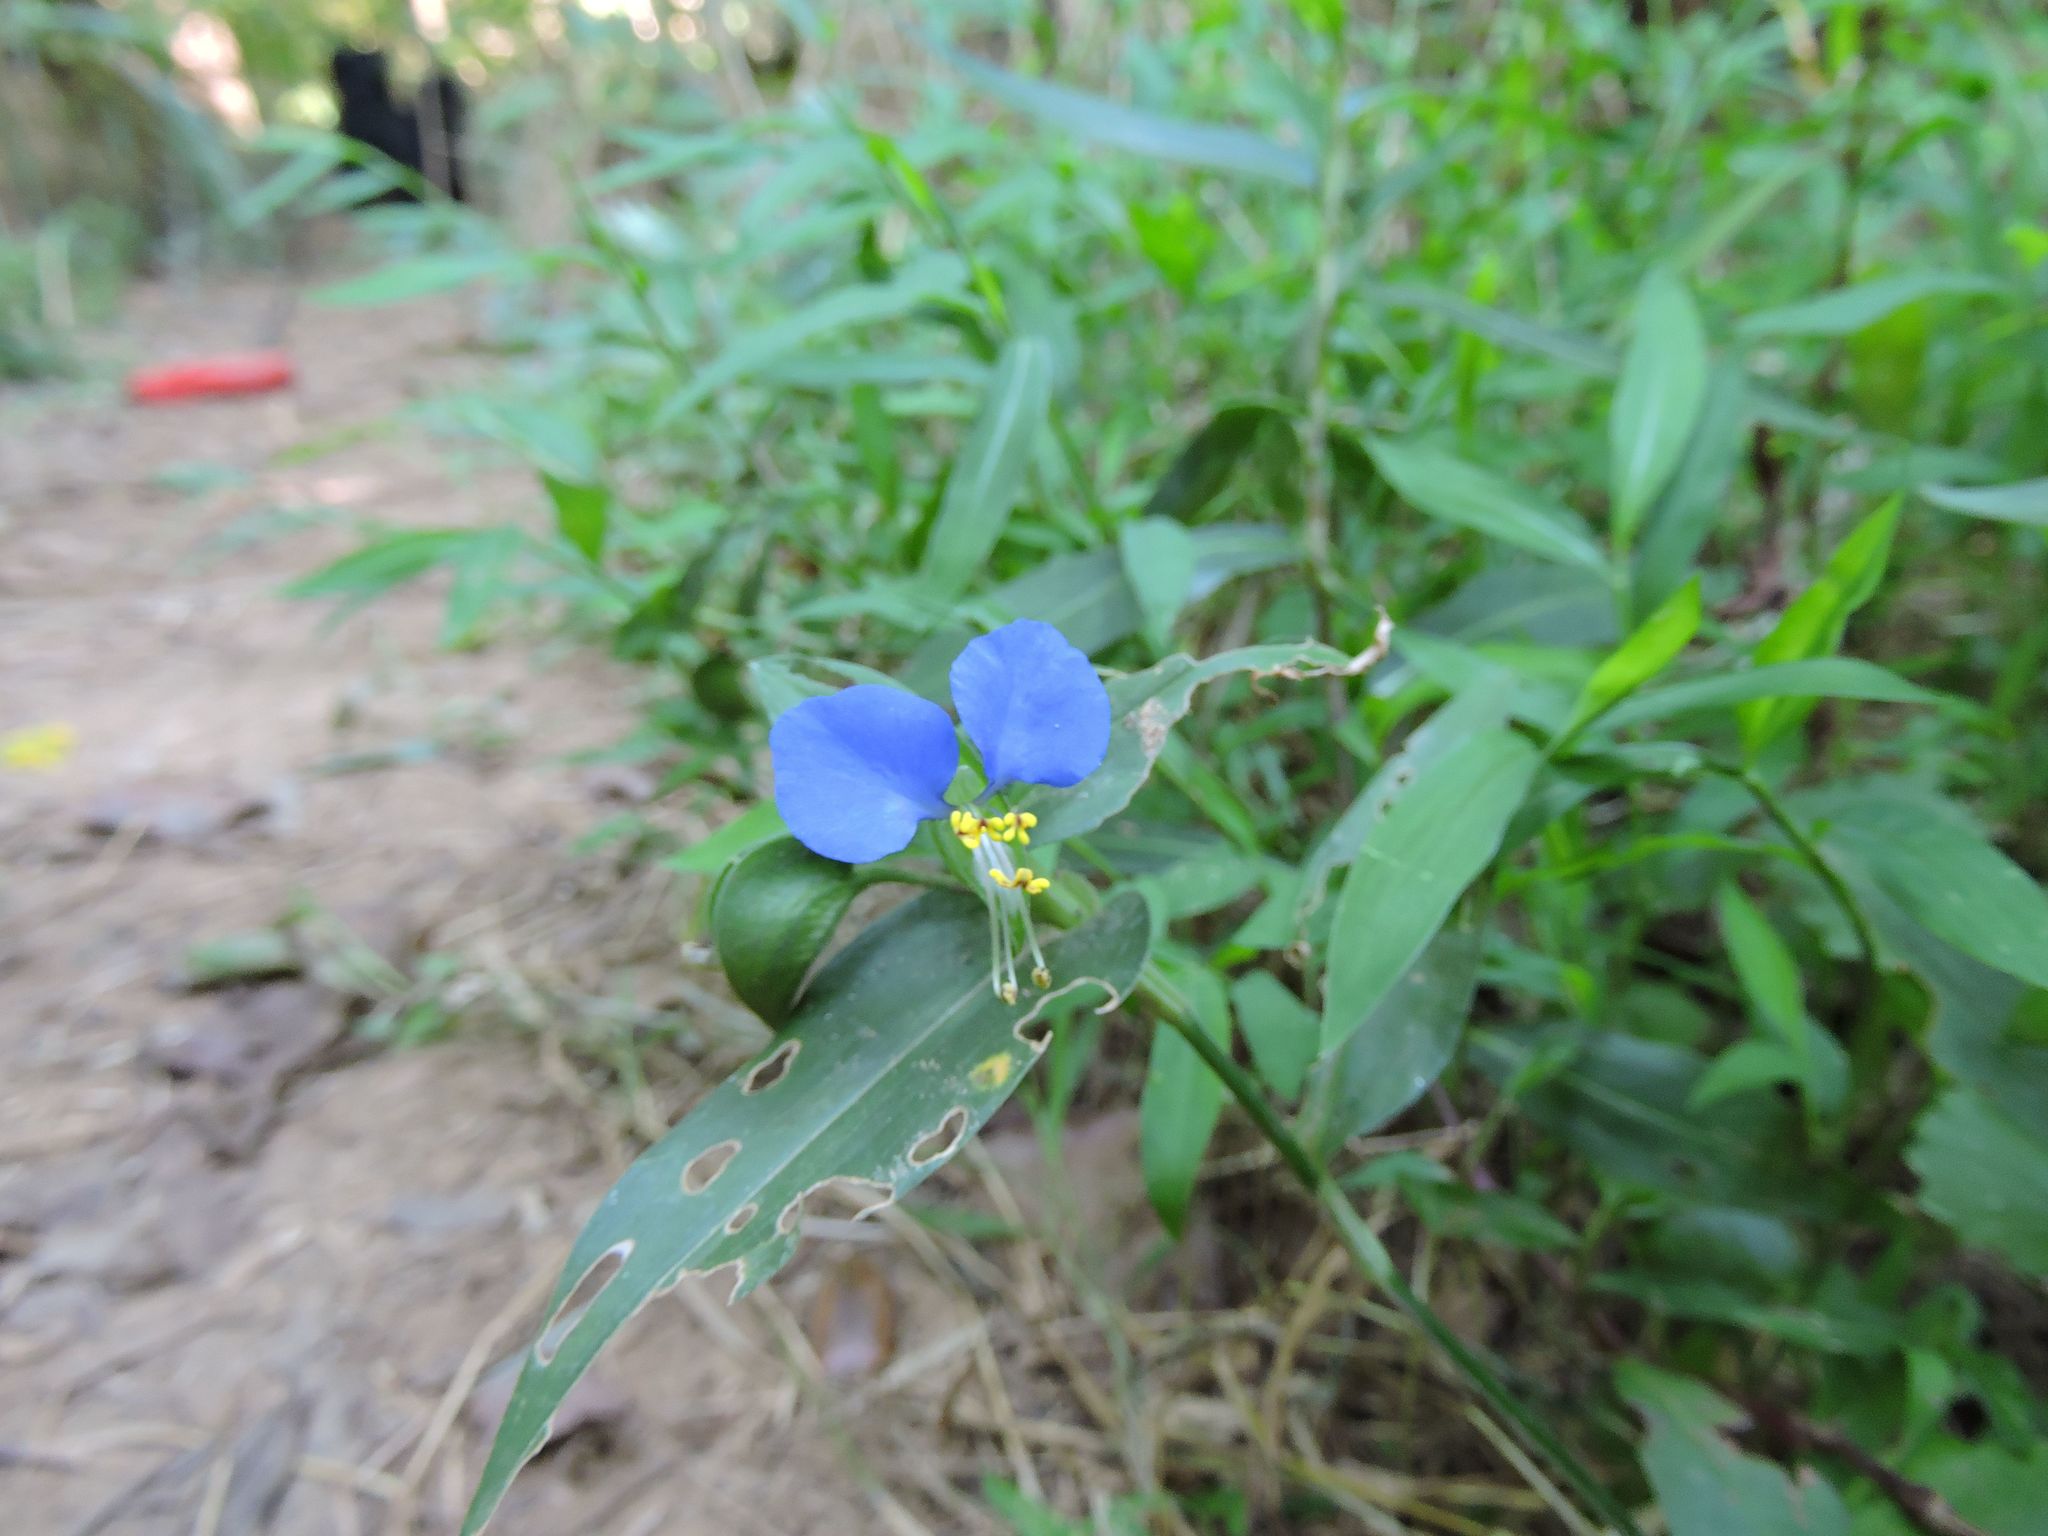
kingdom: Plantae
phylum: Tracheophyta
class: Liliopsida
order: Commelinales
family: Commelinaceae
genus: Commelina
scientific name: Commelina communis
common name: Asiatic dayflower
